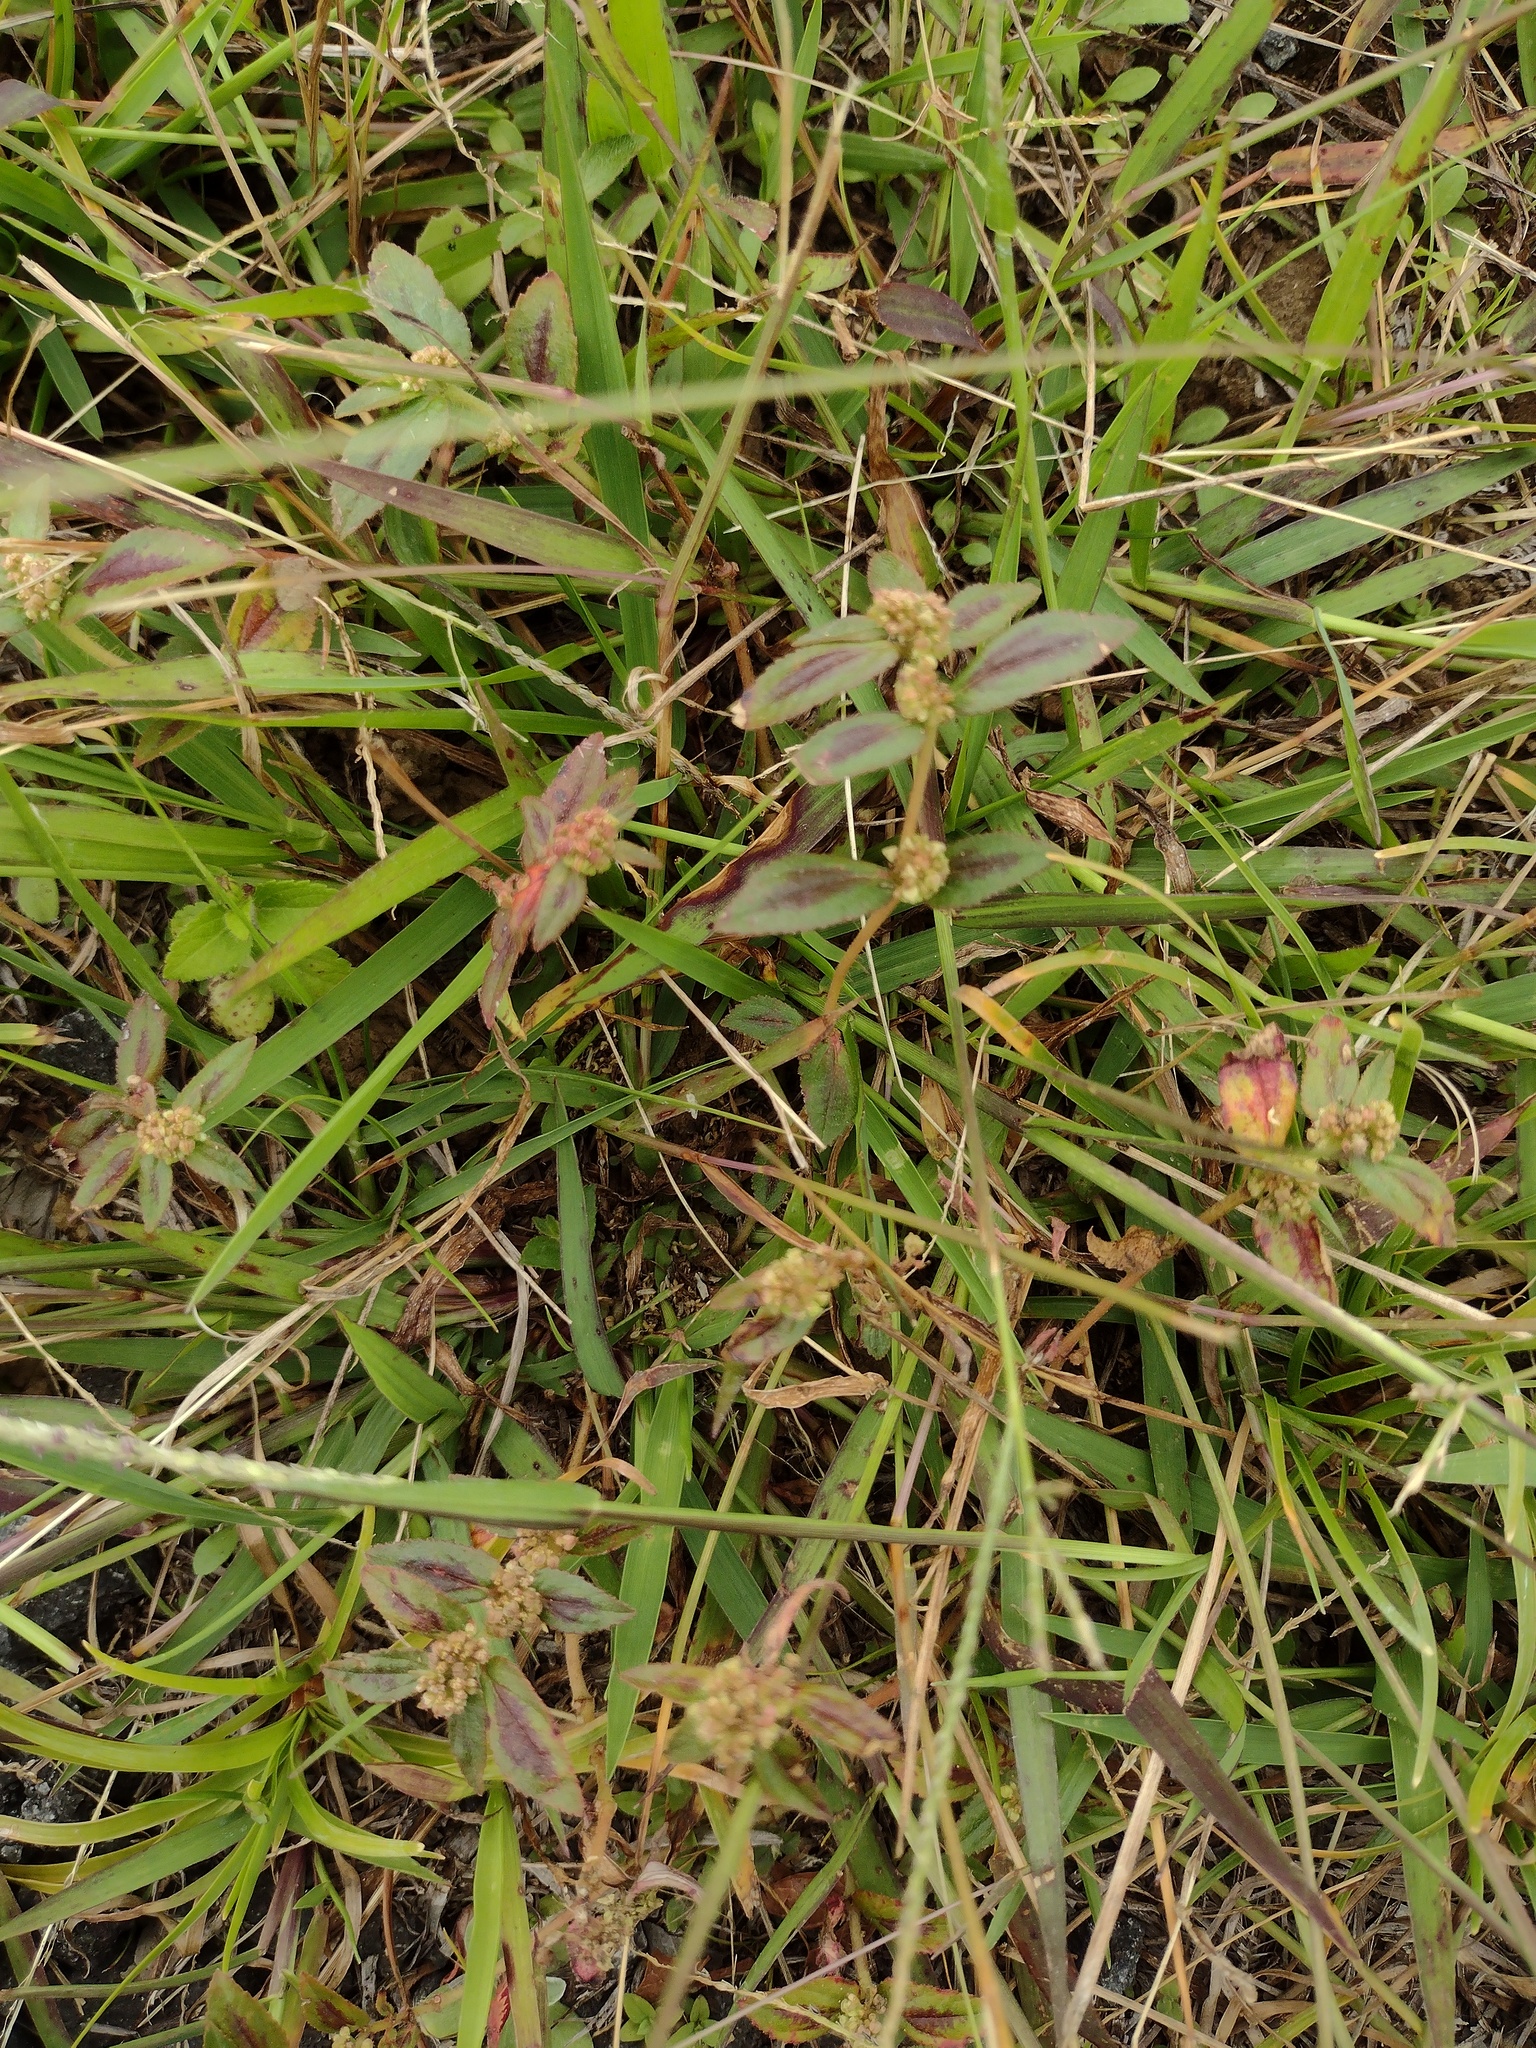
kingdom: Plantae
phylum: Tracheophyta
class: Magnoliopsida
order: Malpighiales
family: Euphorbiaceae
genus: Euphorbia
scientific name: Euphorbia hirta
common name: Pillpod sandmat
